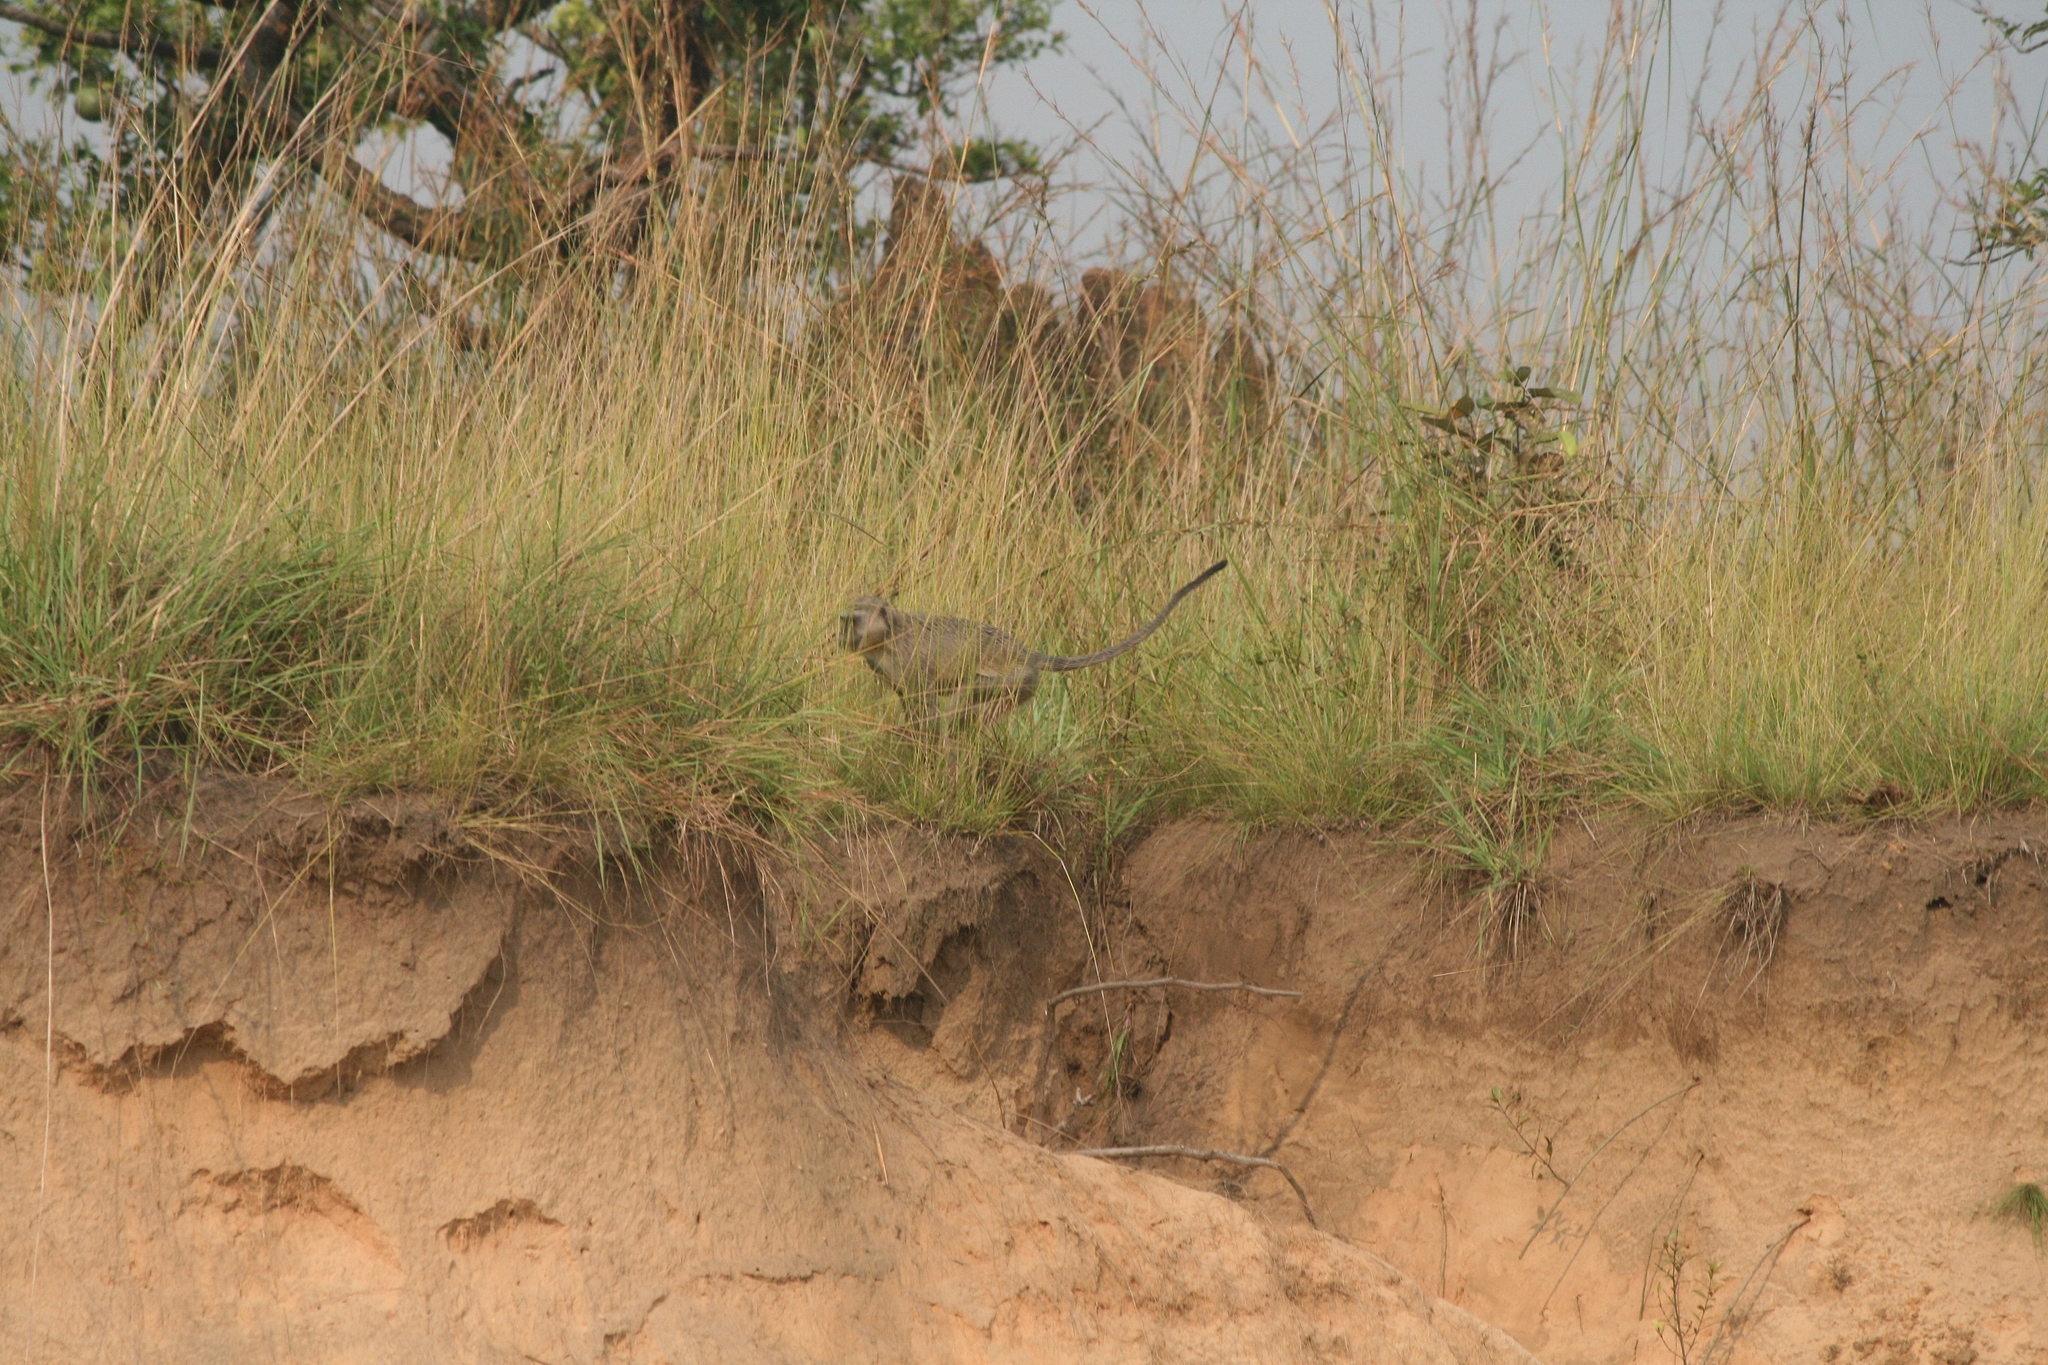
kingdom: Animalia
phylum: Chordata
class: Mammalia
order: Primates
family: Cercopithecidae
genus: Chlorocebus
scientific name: Chlorocebus cynosuros
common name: Malbrouck
